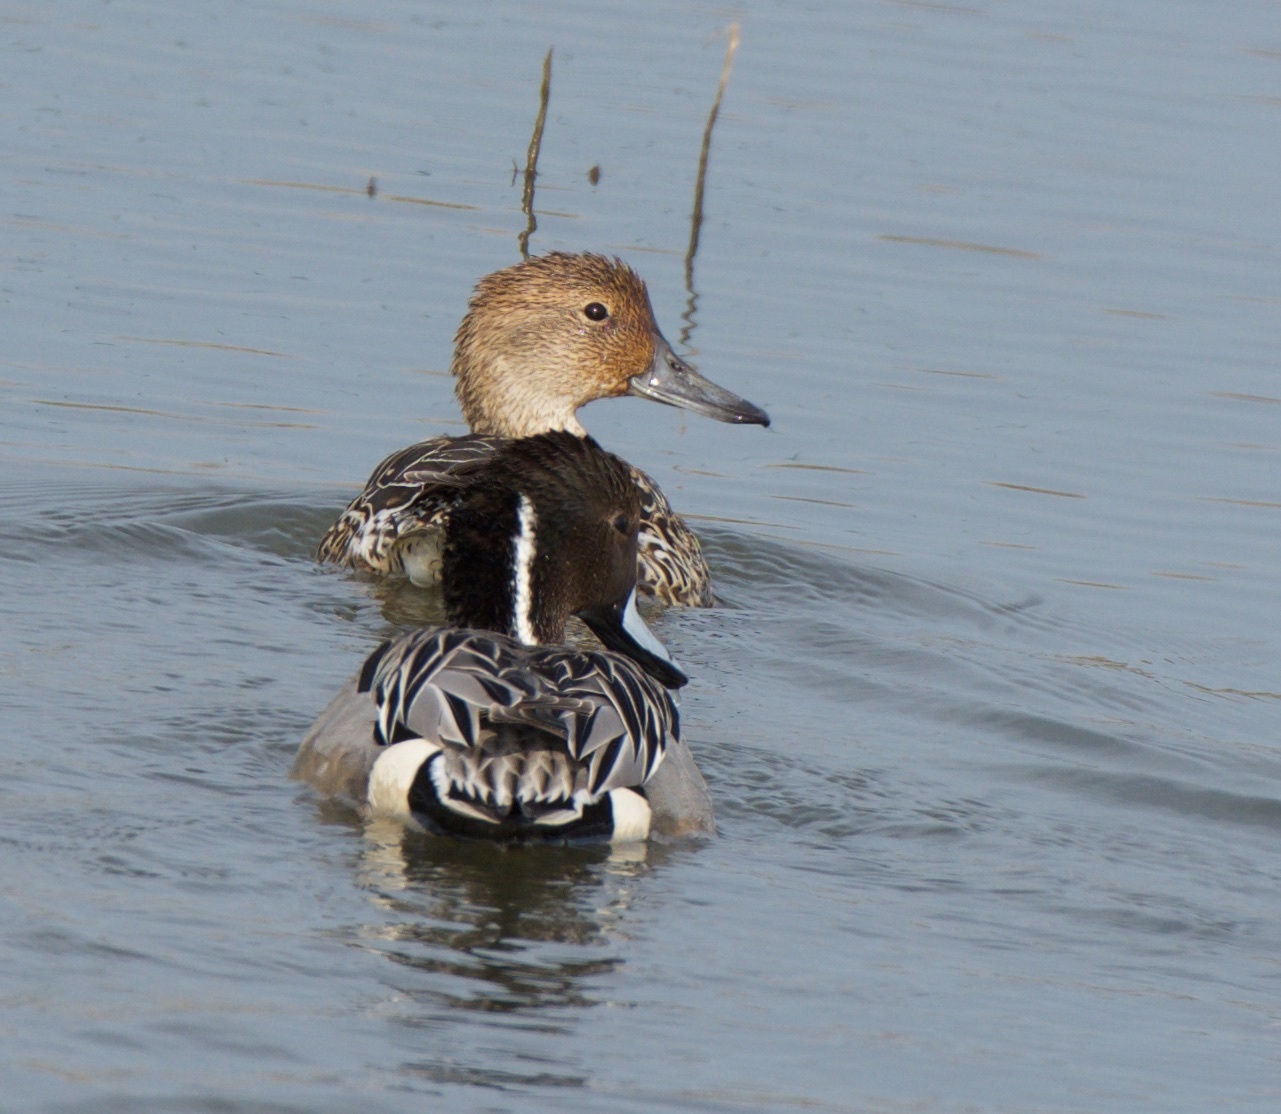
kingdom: Animalia
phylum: Chordata
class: Aves
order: Anseriformes
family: Anatidae
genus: Anas
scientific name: Anas acuta
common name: Northern pintail
